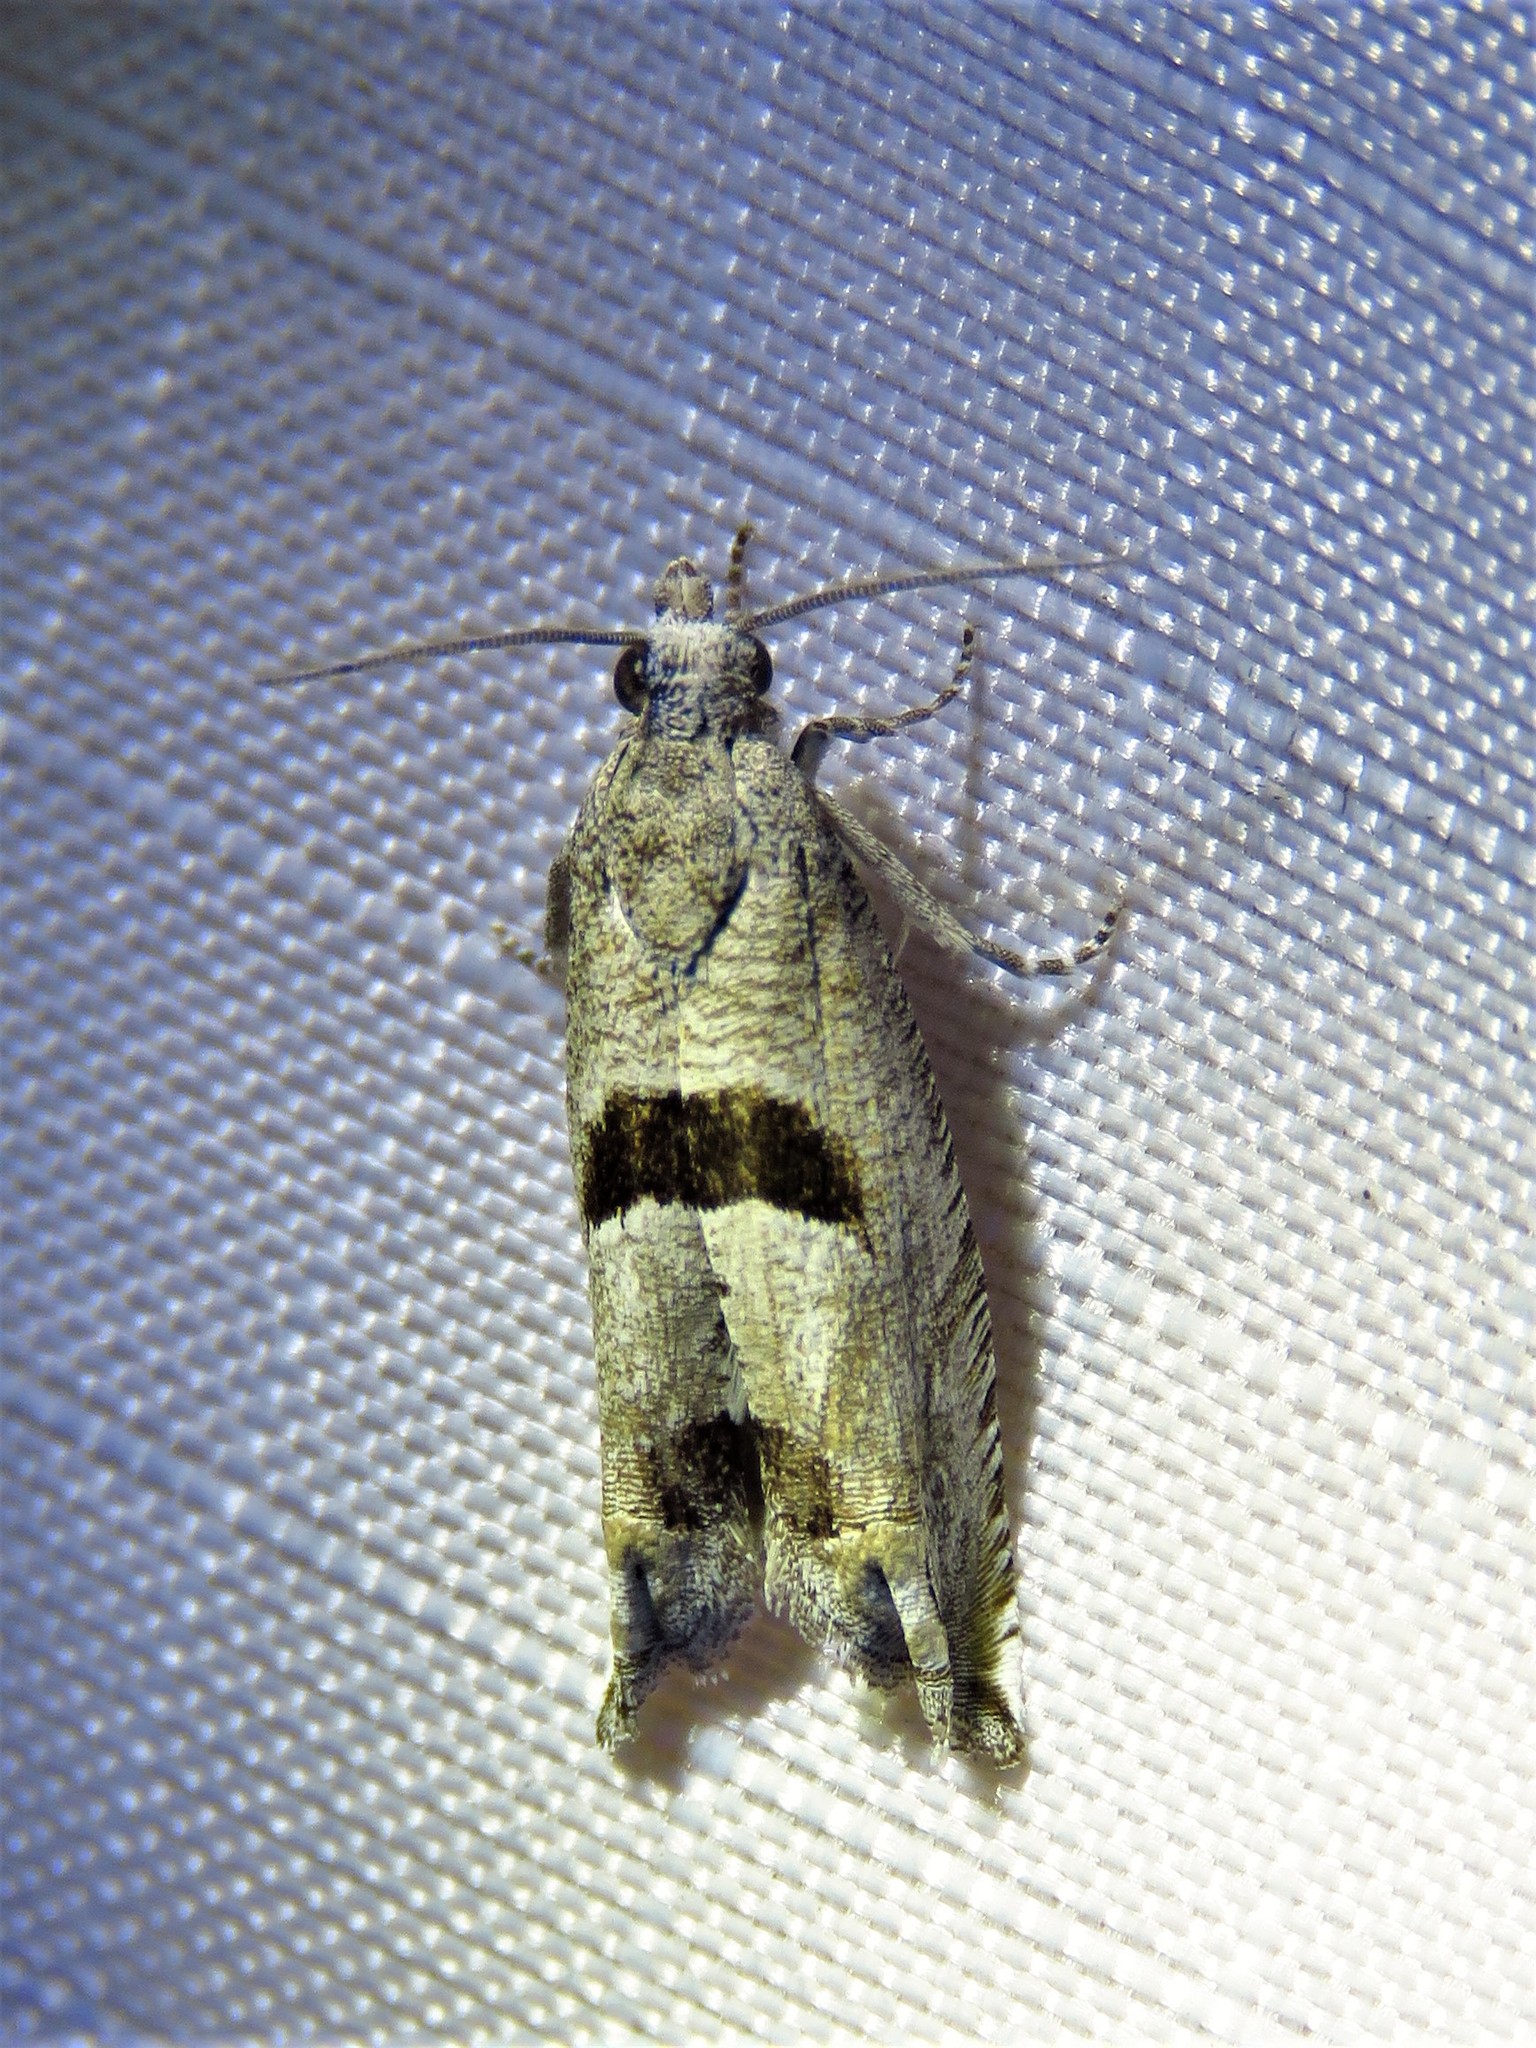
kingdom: Animalia
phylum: Arthropoda
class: Insecta
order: Lepidoptera
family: Tortricidae
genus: Suleima
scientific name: Suleima helianthana
